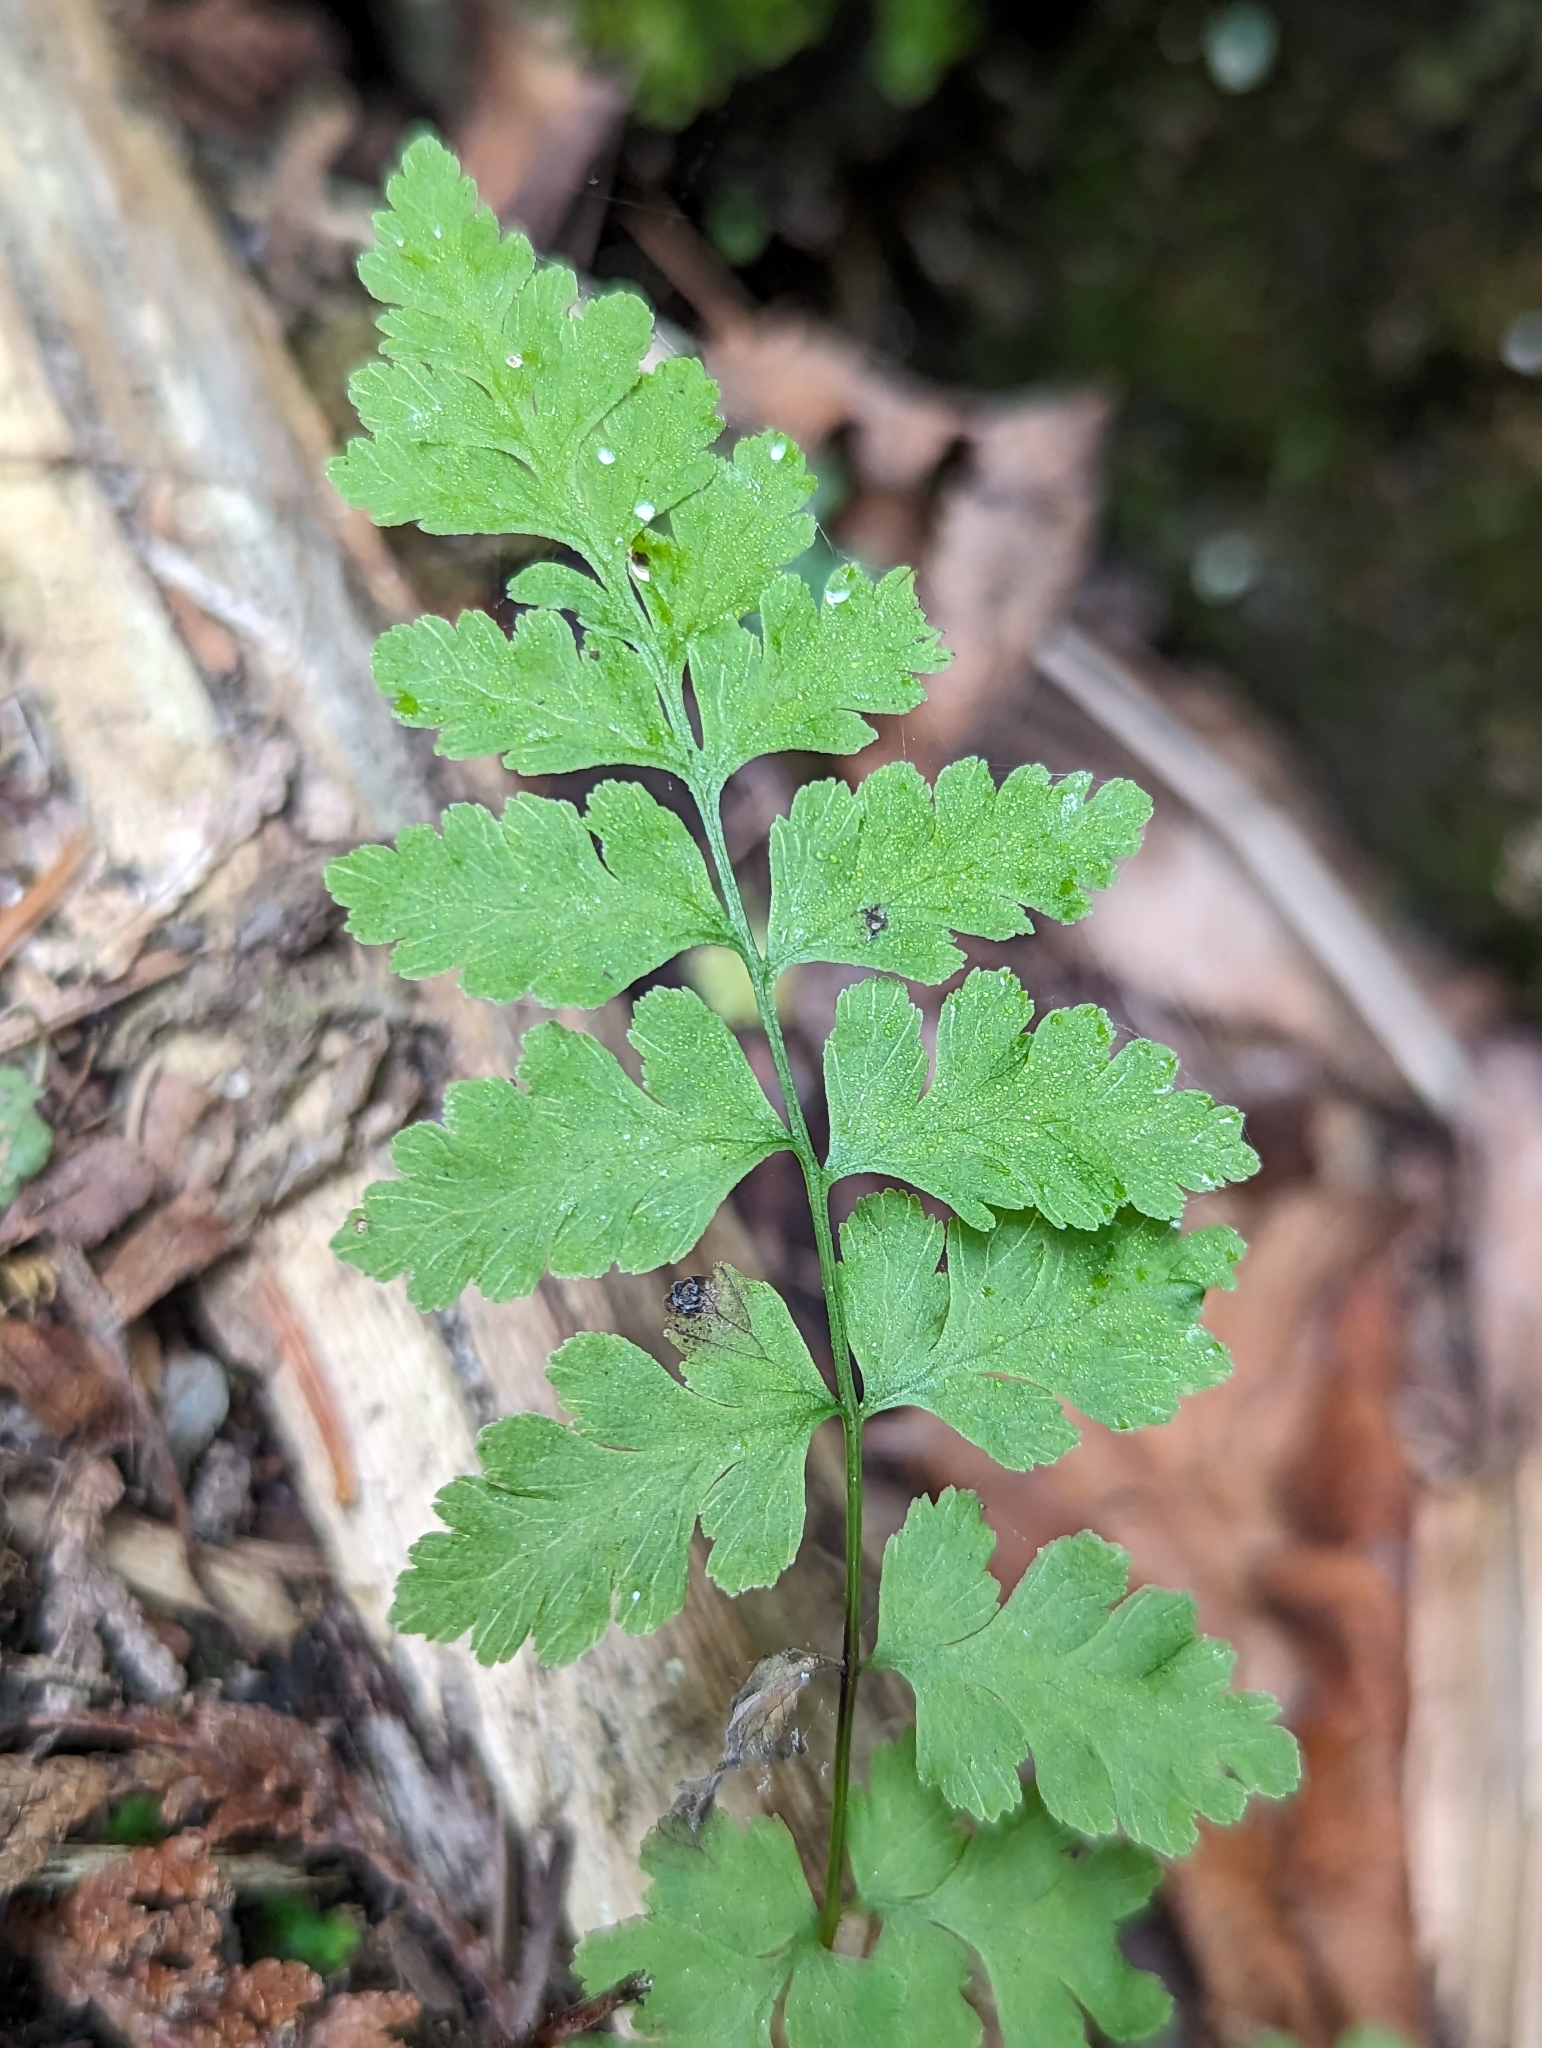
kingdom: Plantae
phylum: Tracheophyta
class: Polypodiopsida
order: Polypodiales
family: Cystopteridaceae
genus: Cystopteris
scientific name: Cystopteris fragilis
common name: Brittle bladder fern
